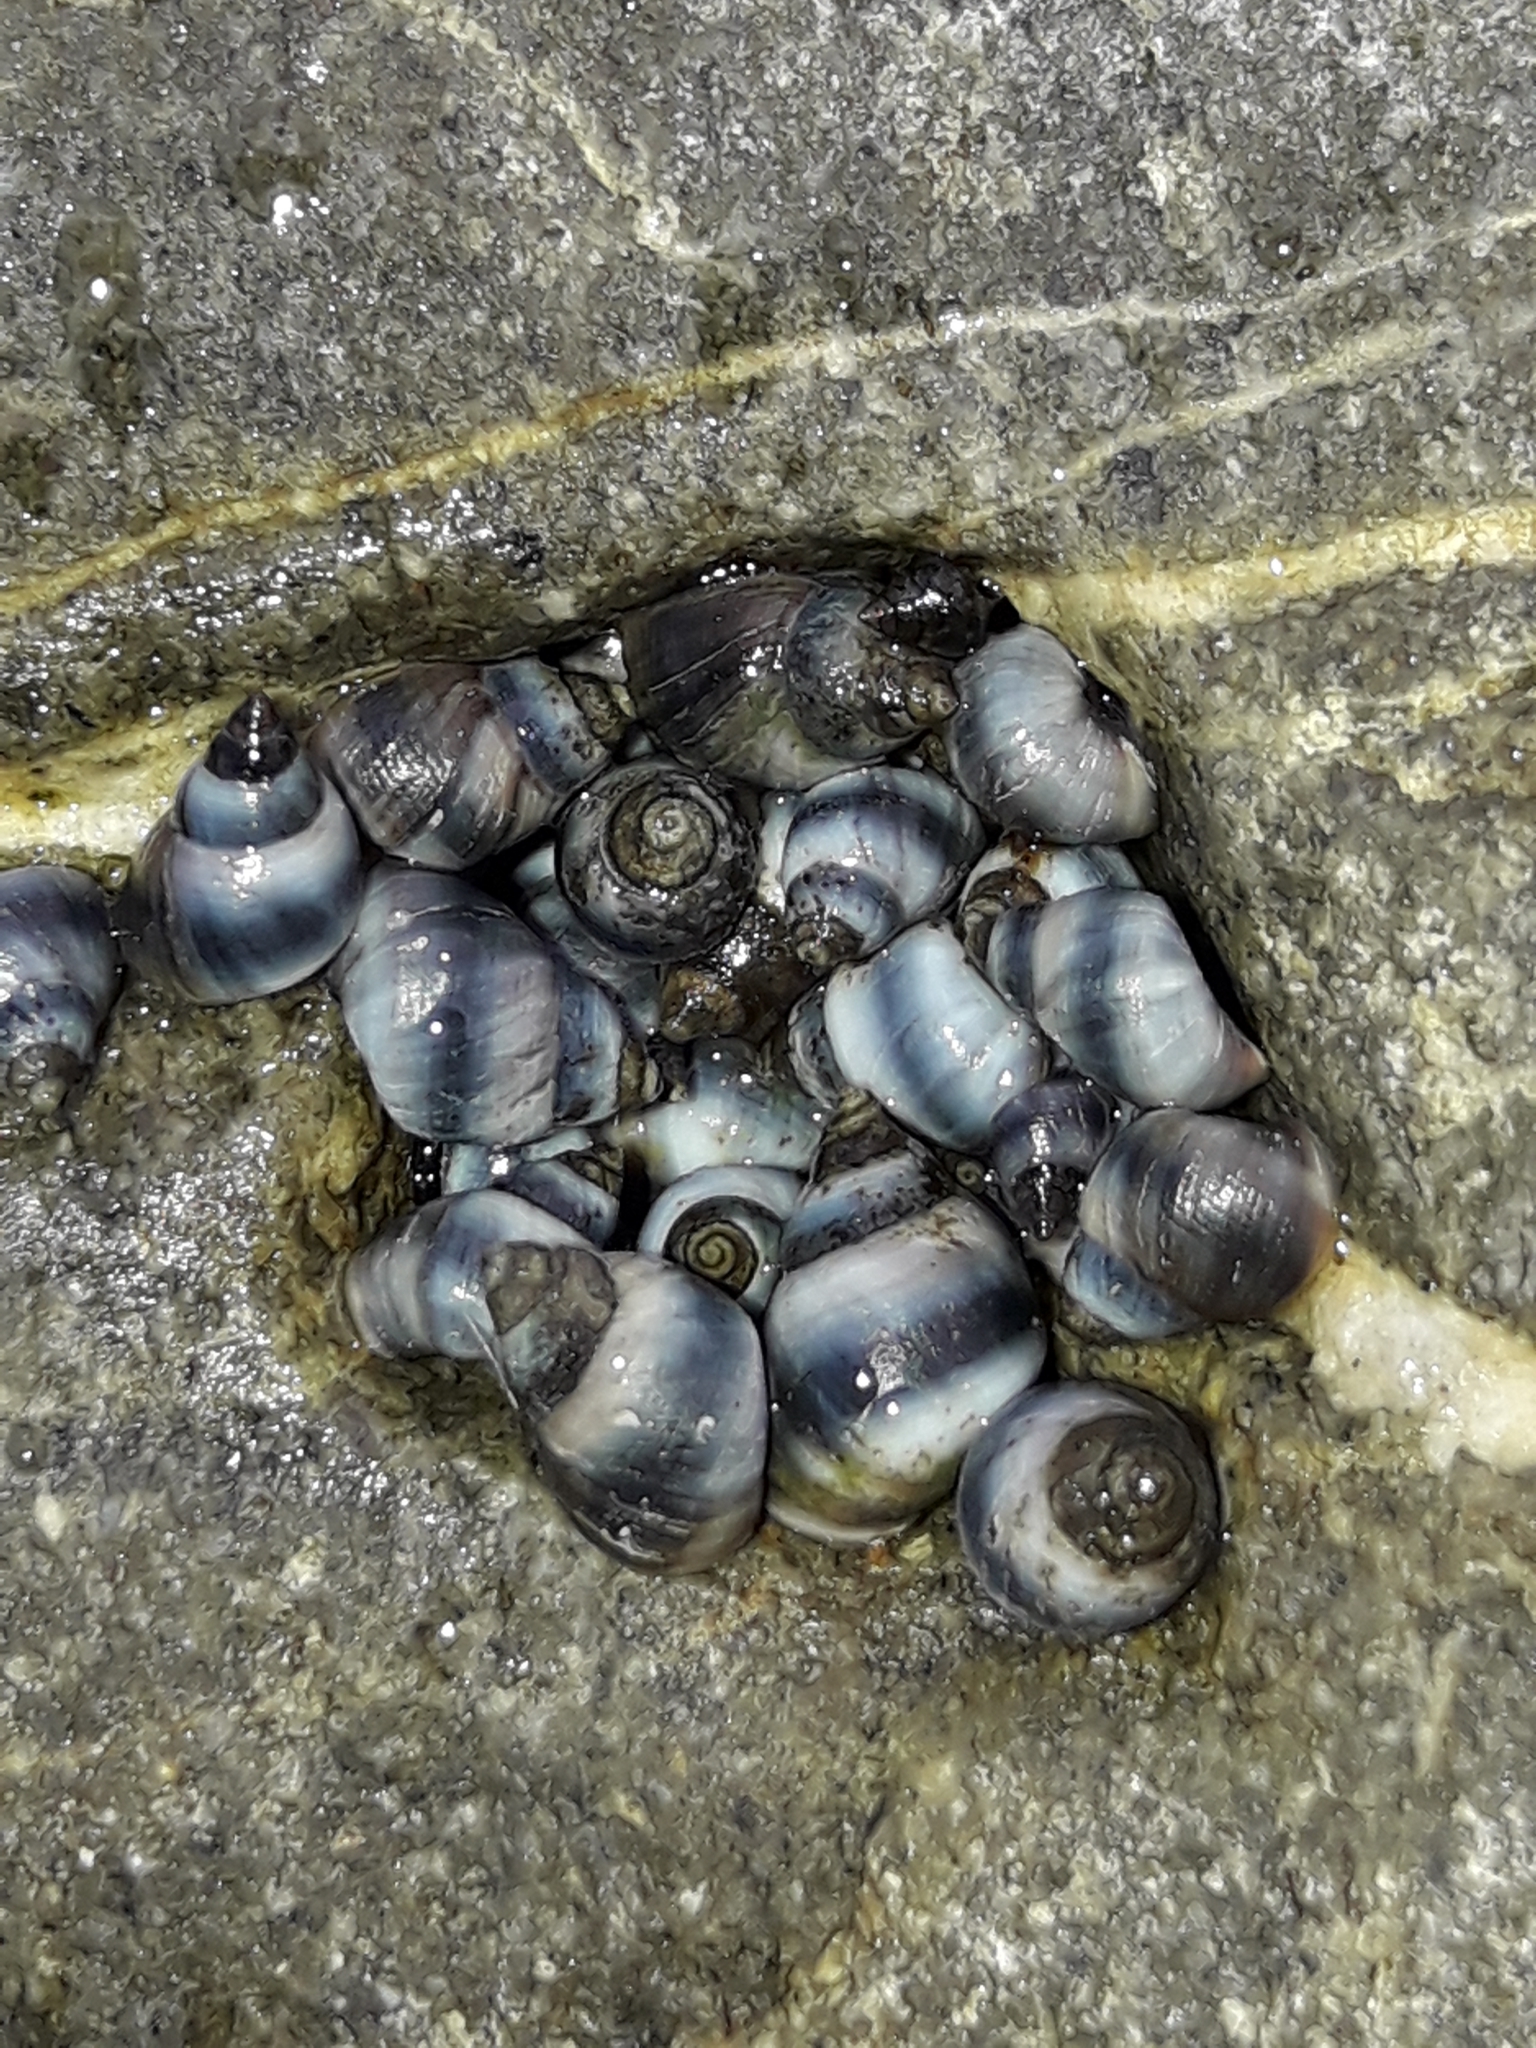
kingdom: Animalia
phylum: Mollusca
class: Gastropoda
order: Littorinimorpha
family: Littorinidae
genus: Austrolittorina
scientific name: Austrolittorina antipodum
